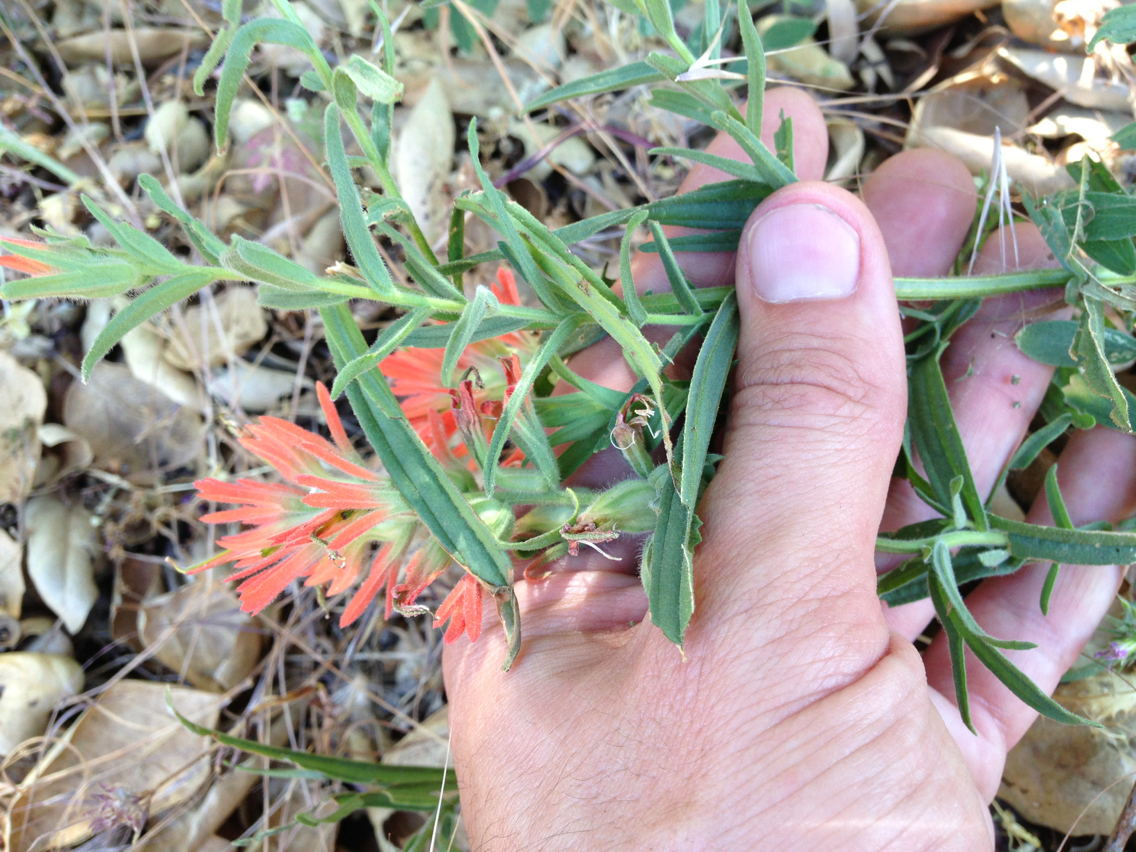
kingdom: Plantae
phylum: Tracheophyta
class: Magnoliopsida
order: Lamiales
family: Orobanchaceae
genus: Castilleja
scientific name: Castilleja affinis
